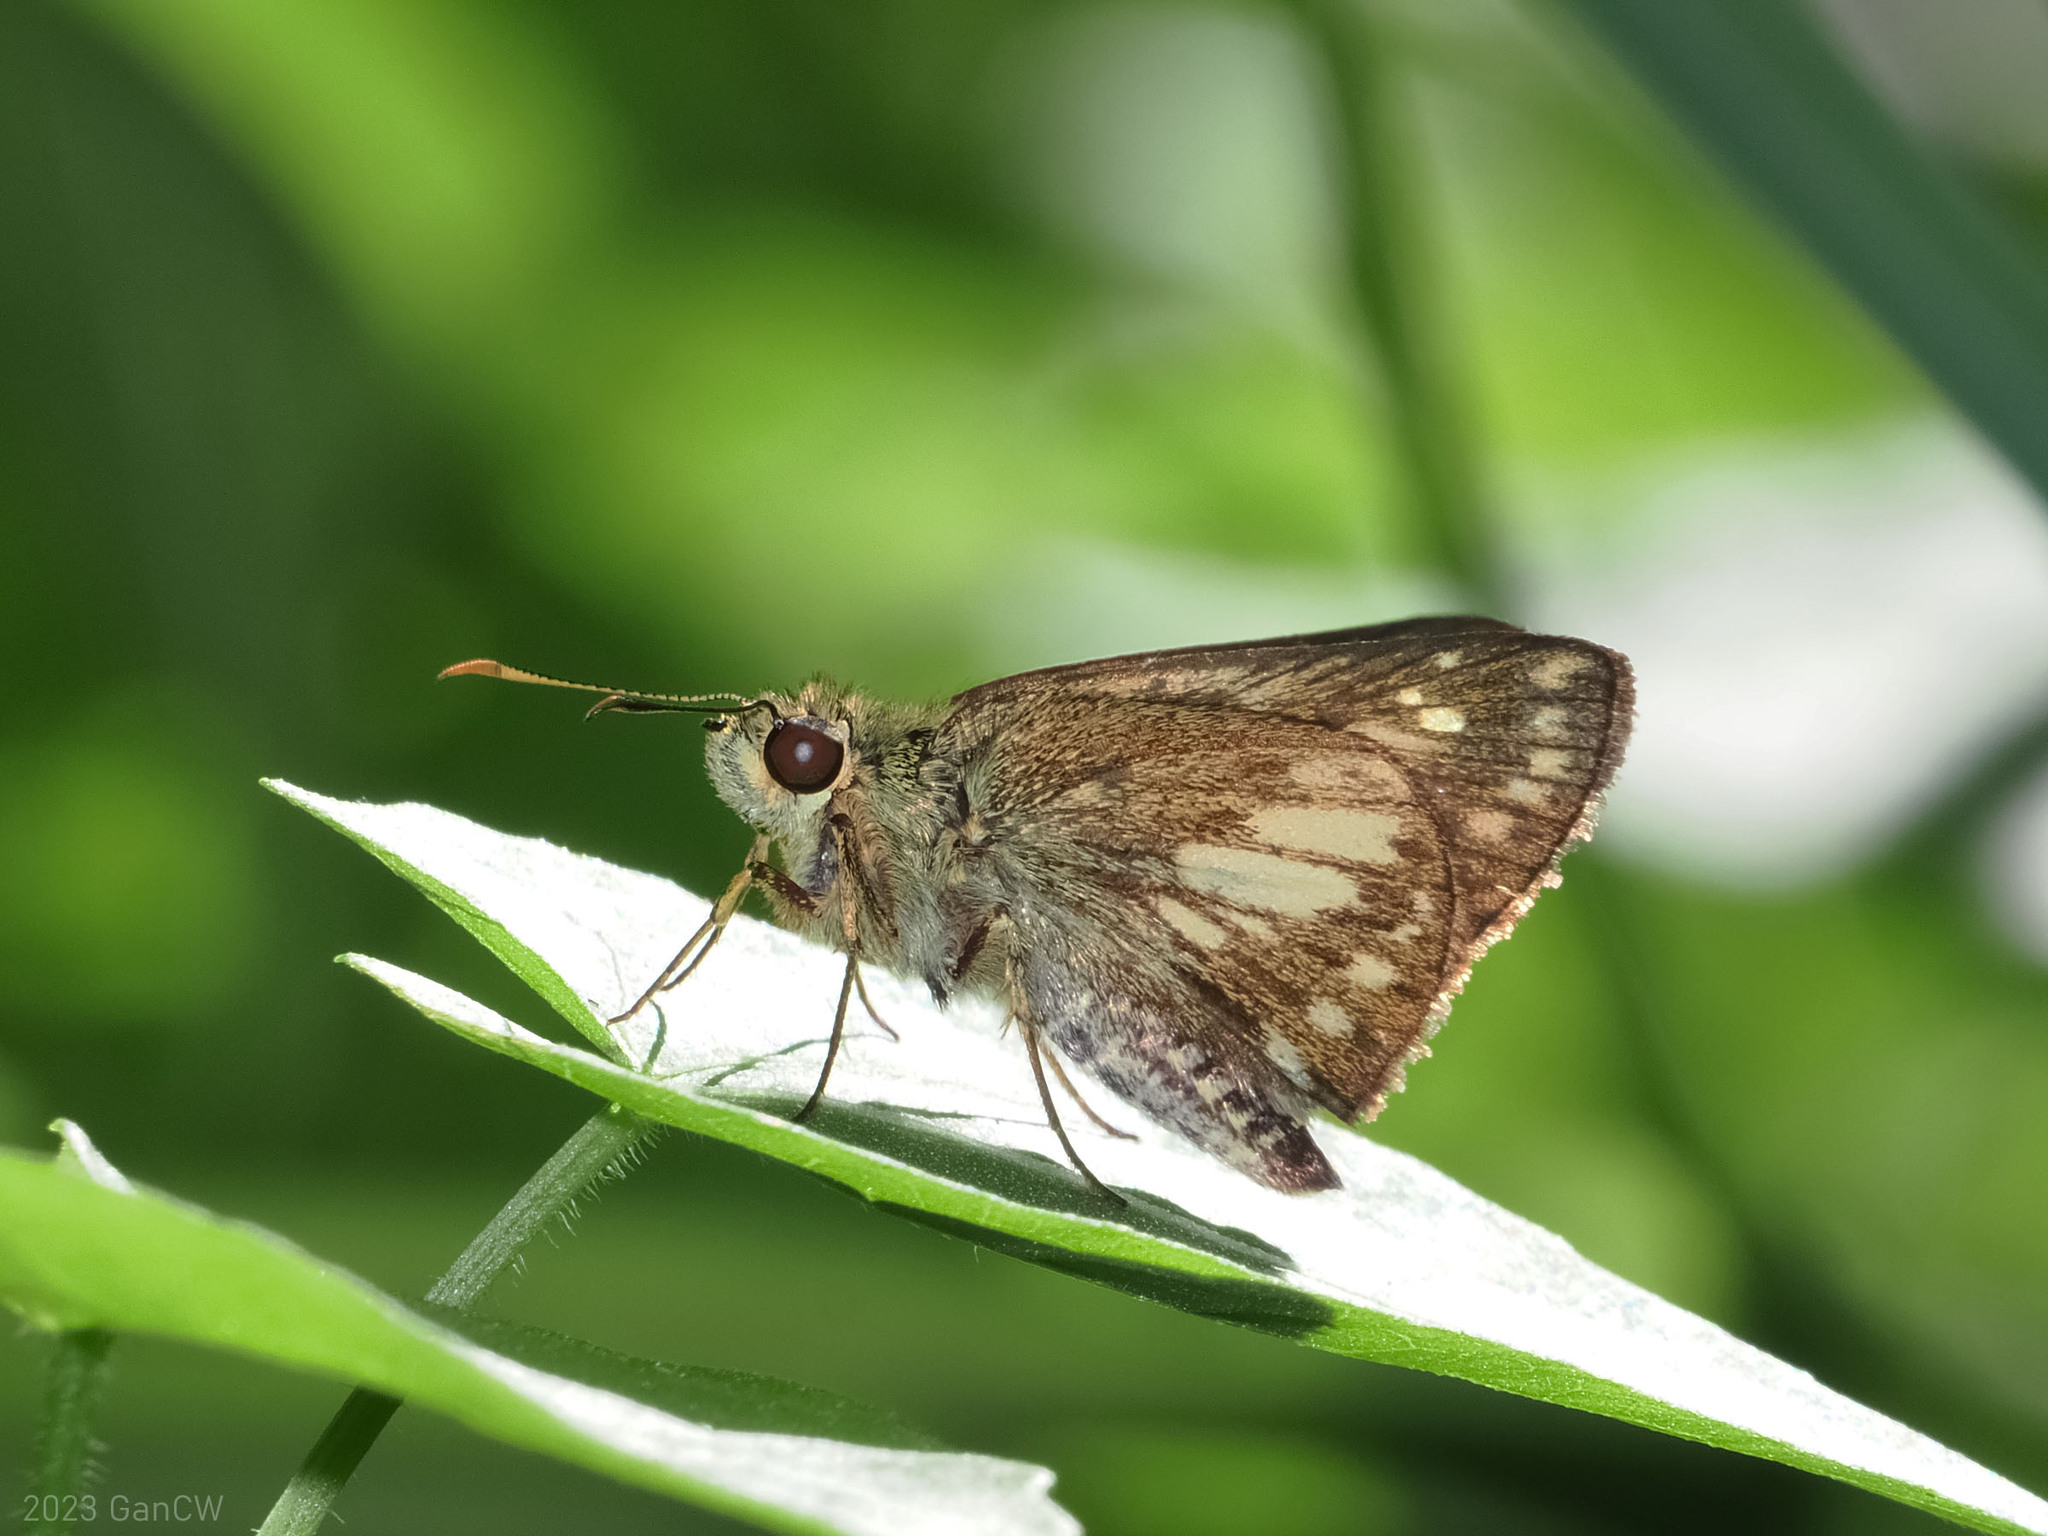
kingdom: Animalia
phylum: Arthropoda
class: Insecta
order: Lepidoptera
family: Hesperiidae
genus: Halpe
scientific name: Halpe luteisquama
